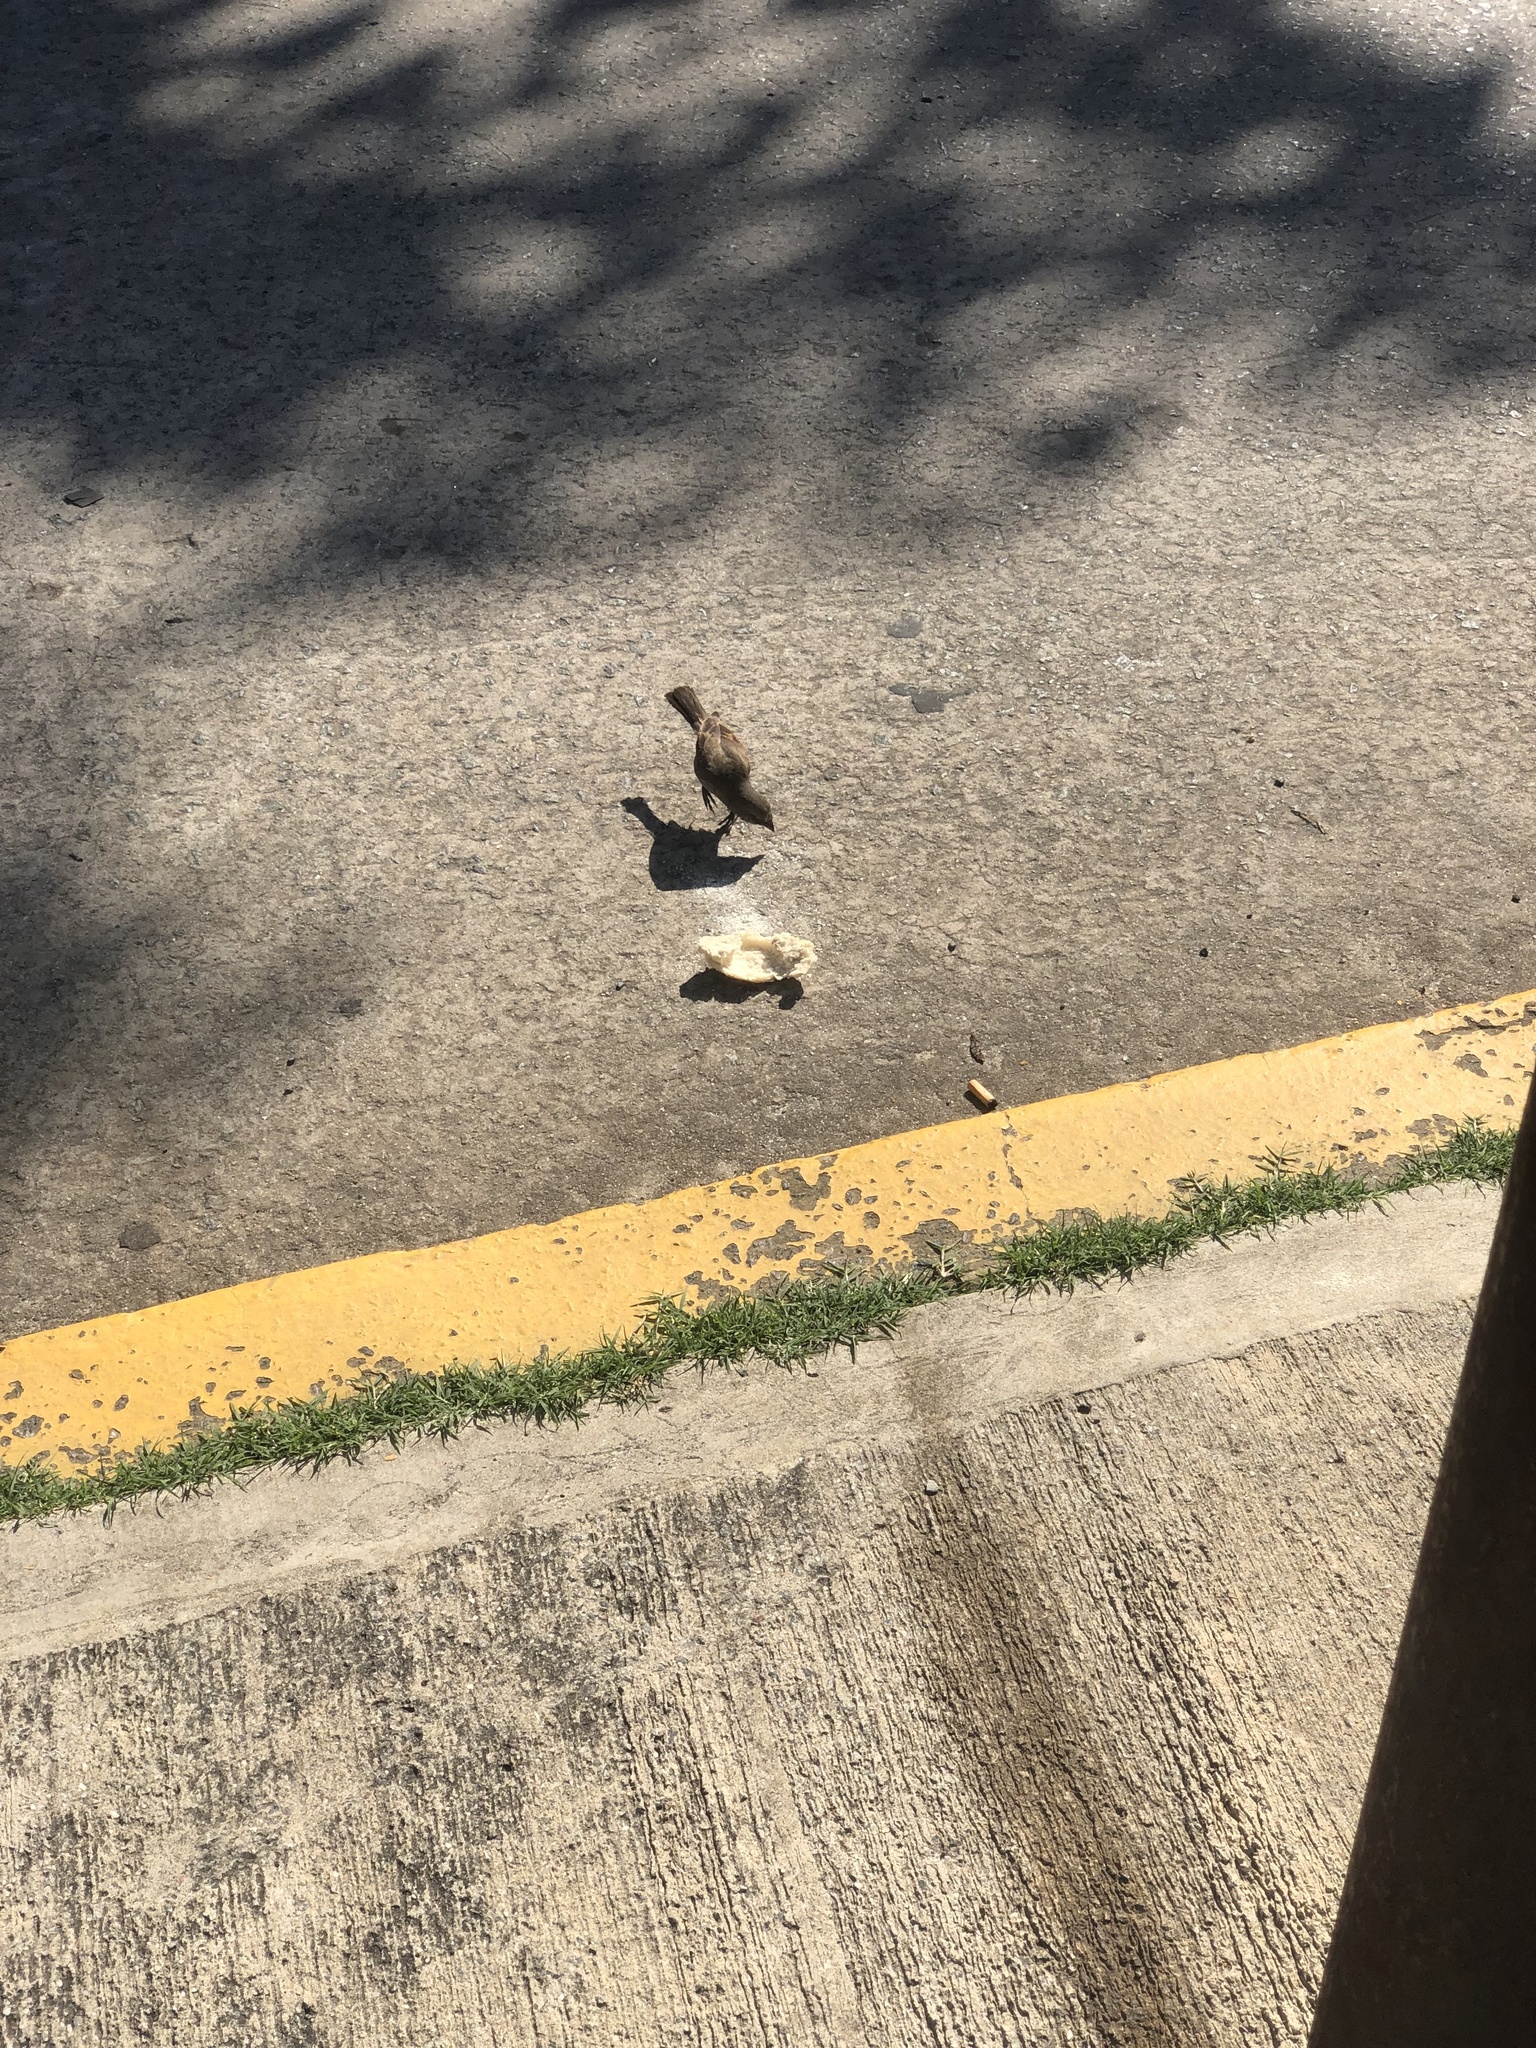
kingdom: Animalia
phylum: Chordata
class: Aves
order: Passeriformes
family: Icteridae
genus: Agelaioides
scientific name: Agelaioides badius
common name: Baywing
